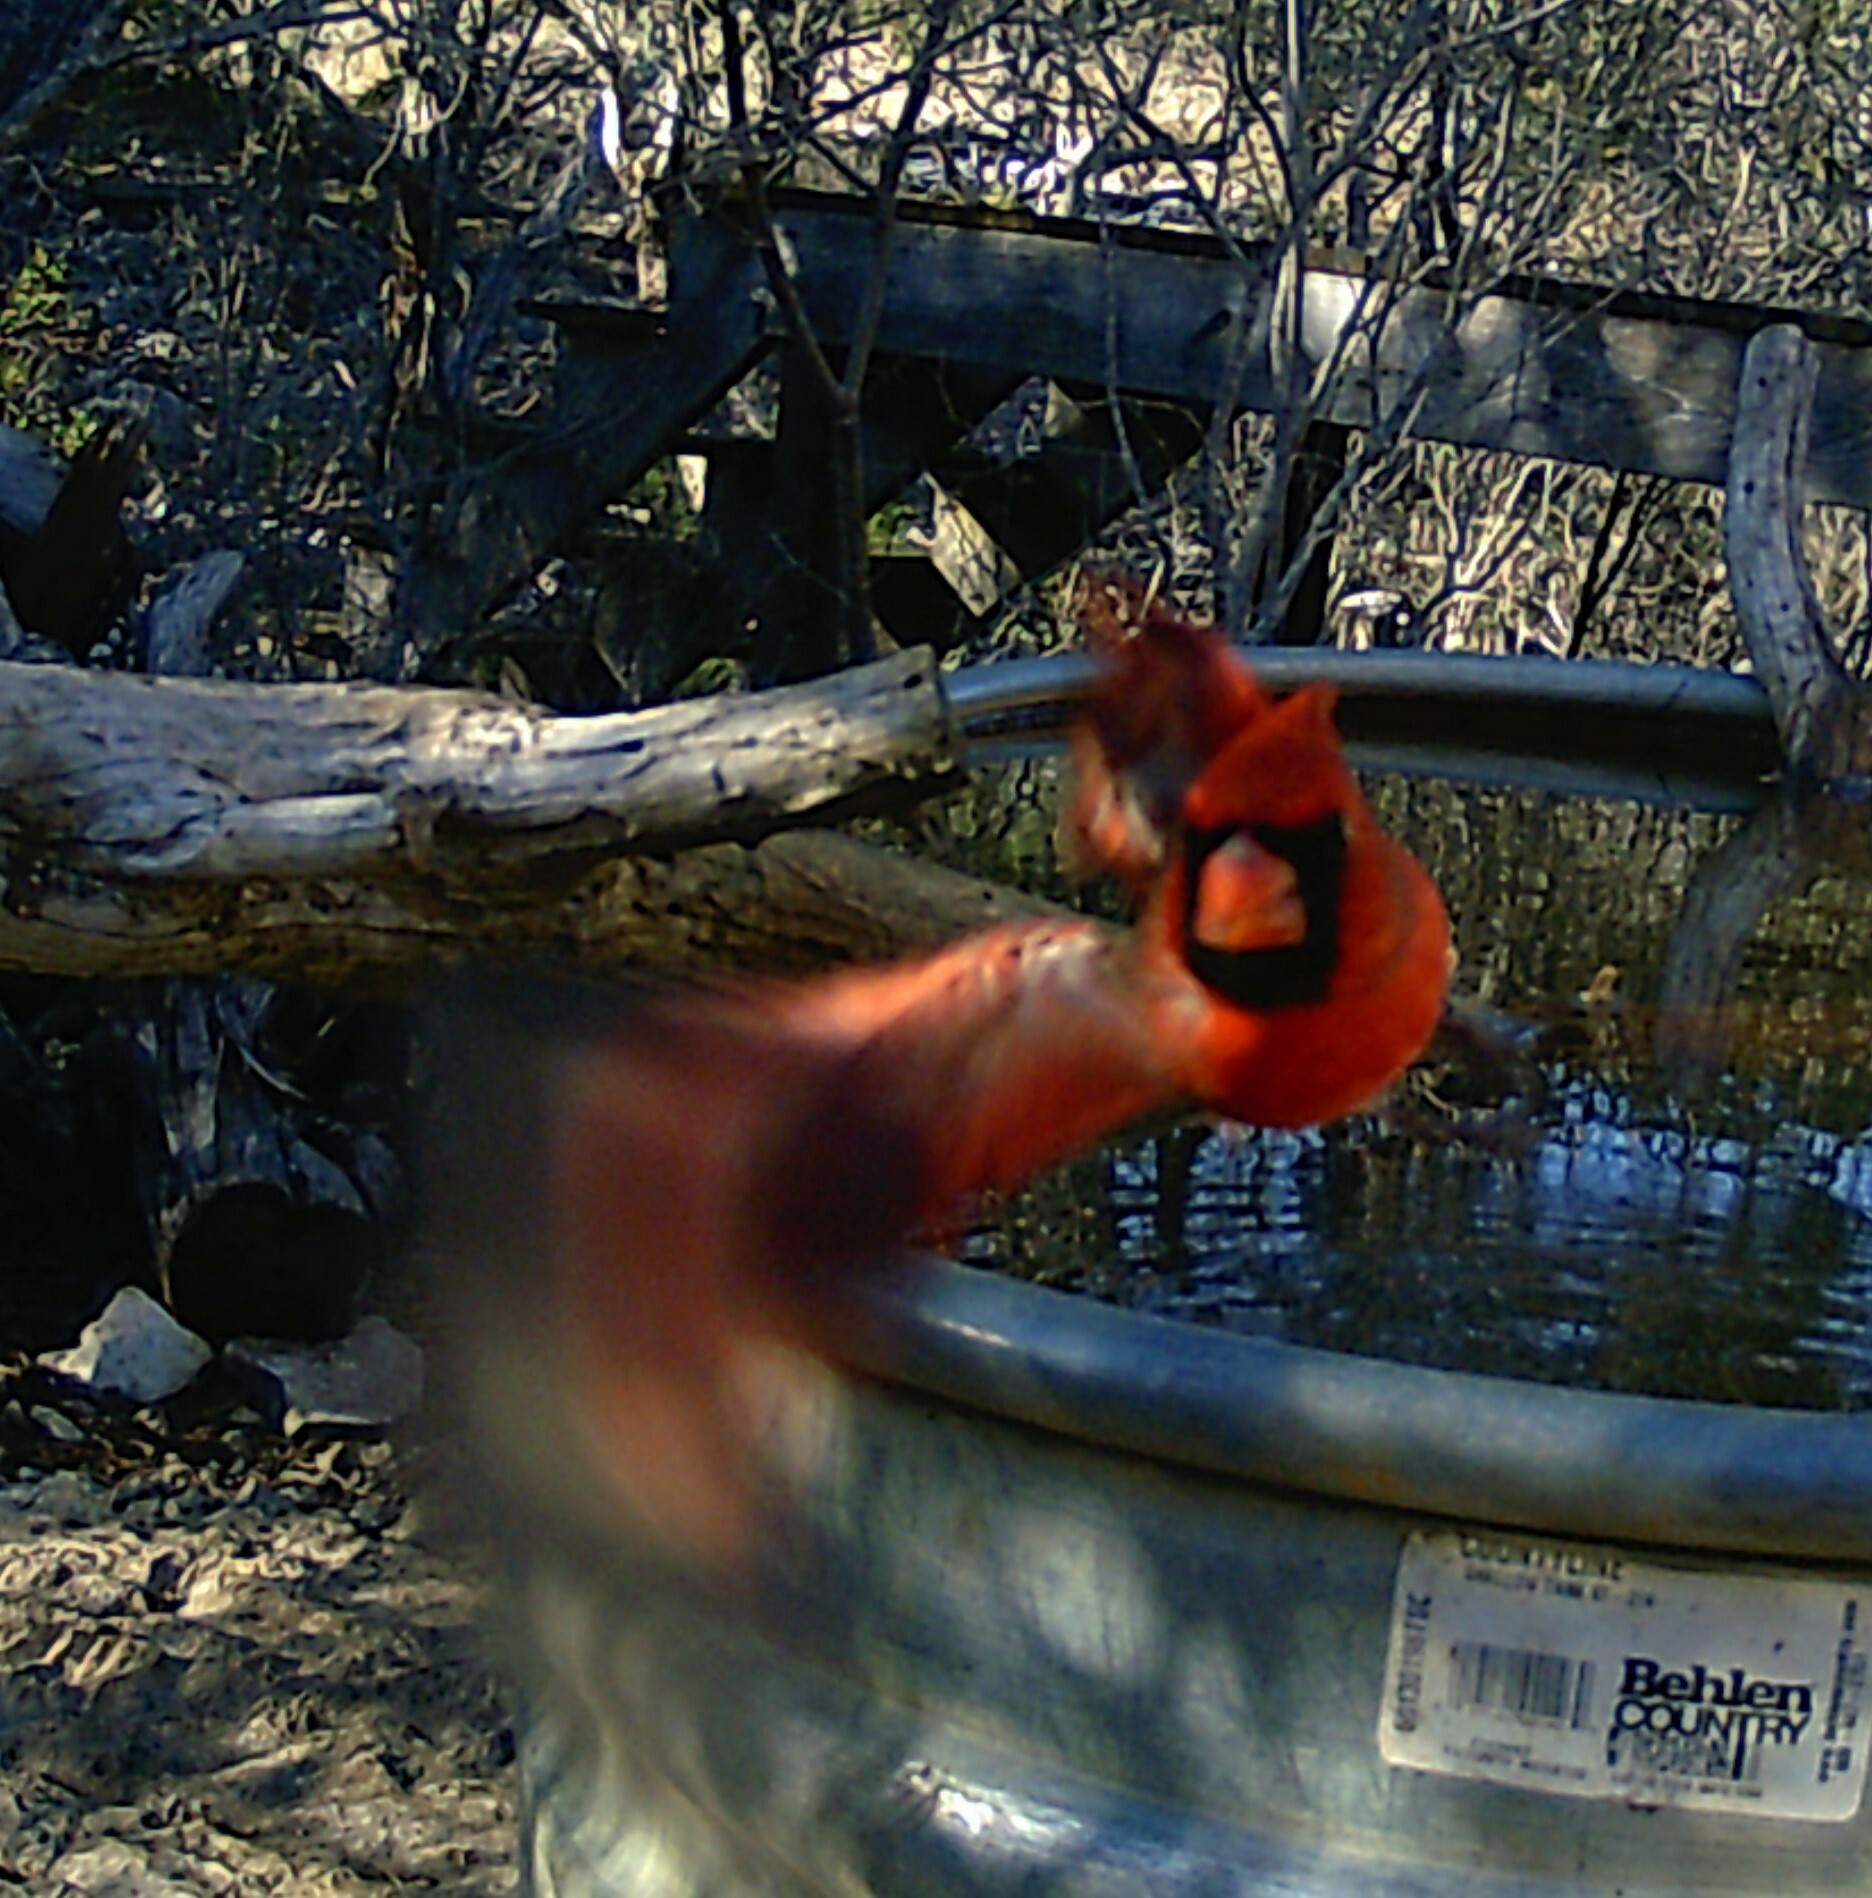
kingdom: Animalia
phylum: Chordata
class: Aves
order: Passeriformes
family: Cardinalidae
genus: Cardinalis
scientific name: Cardinalis cardinalis
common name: Northern cardinal
